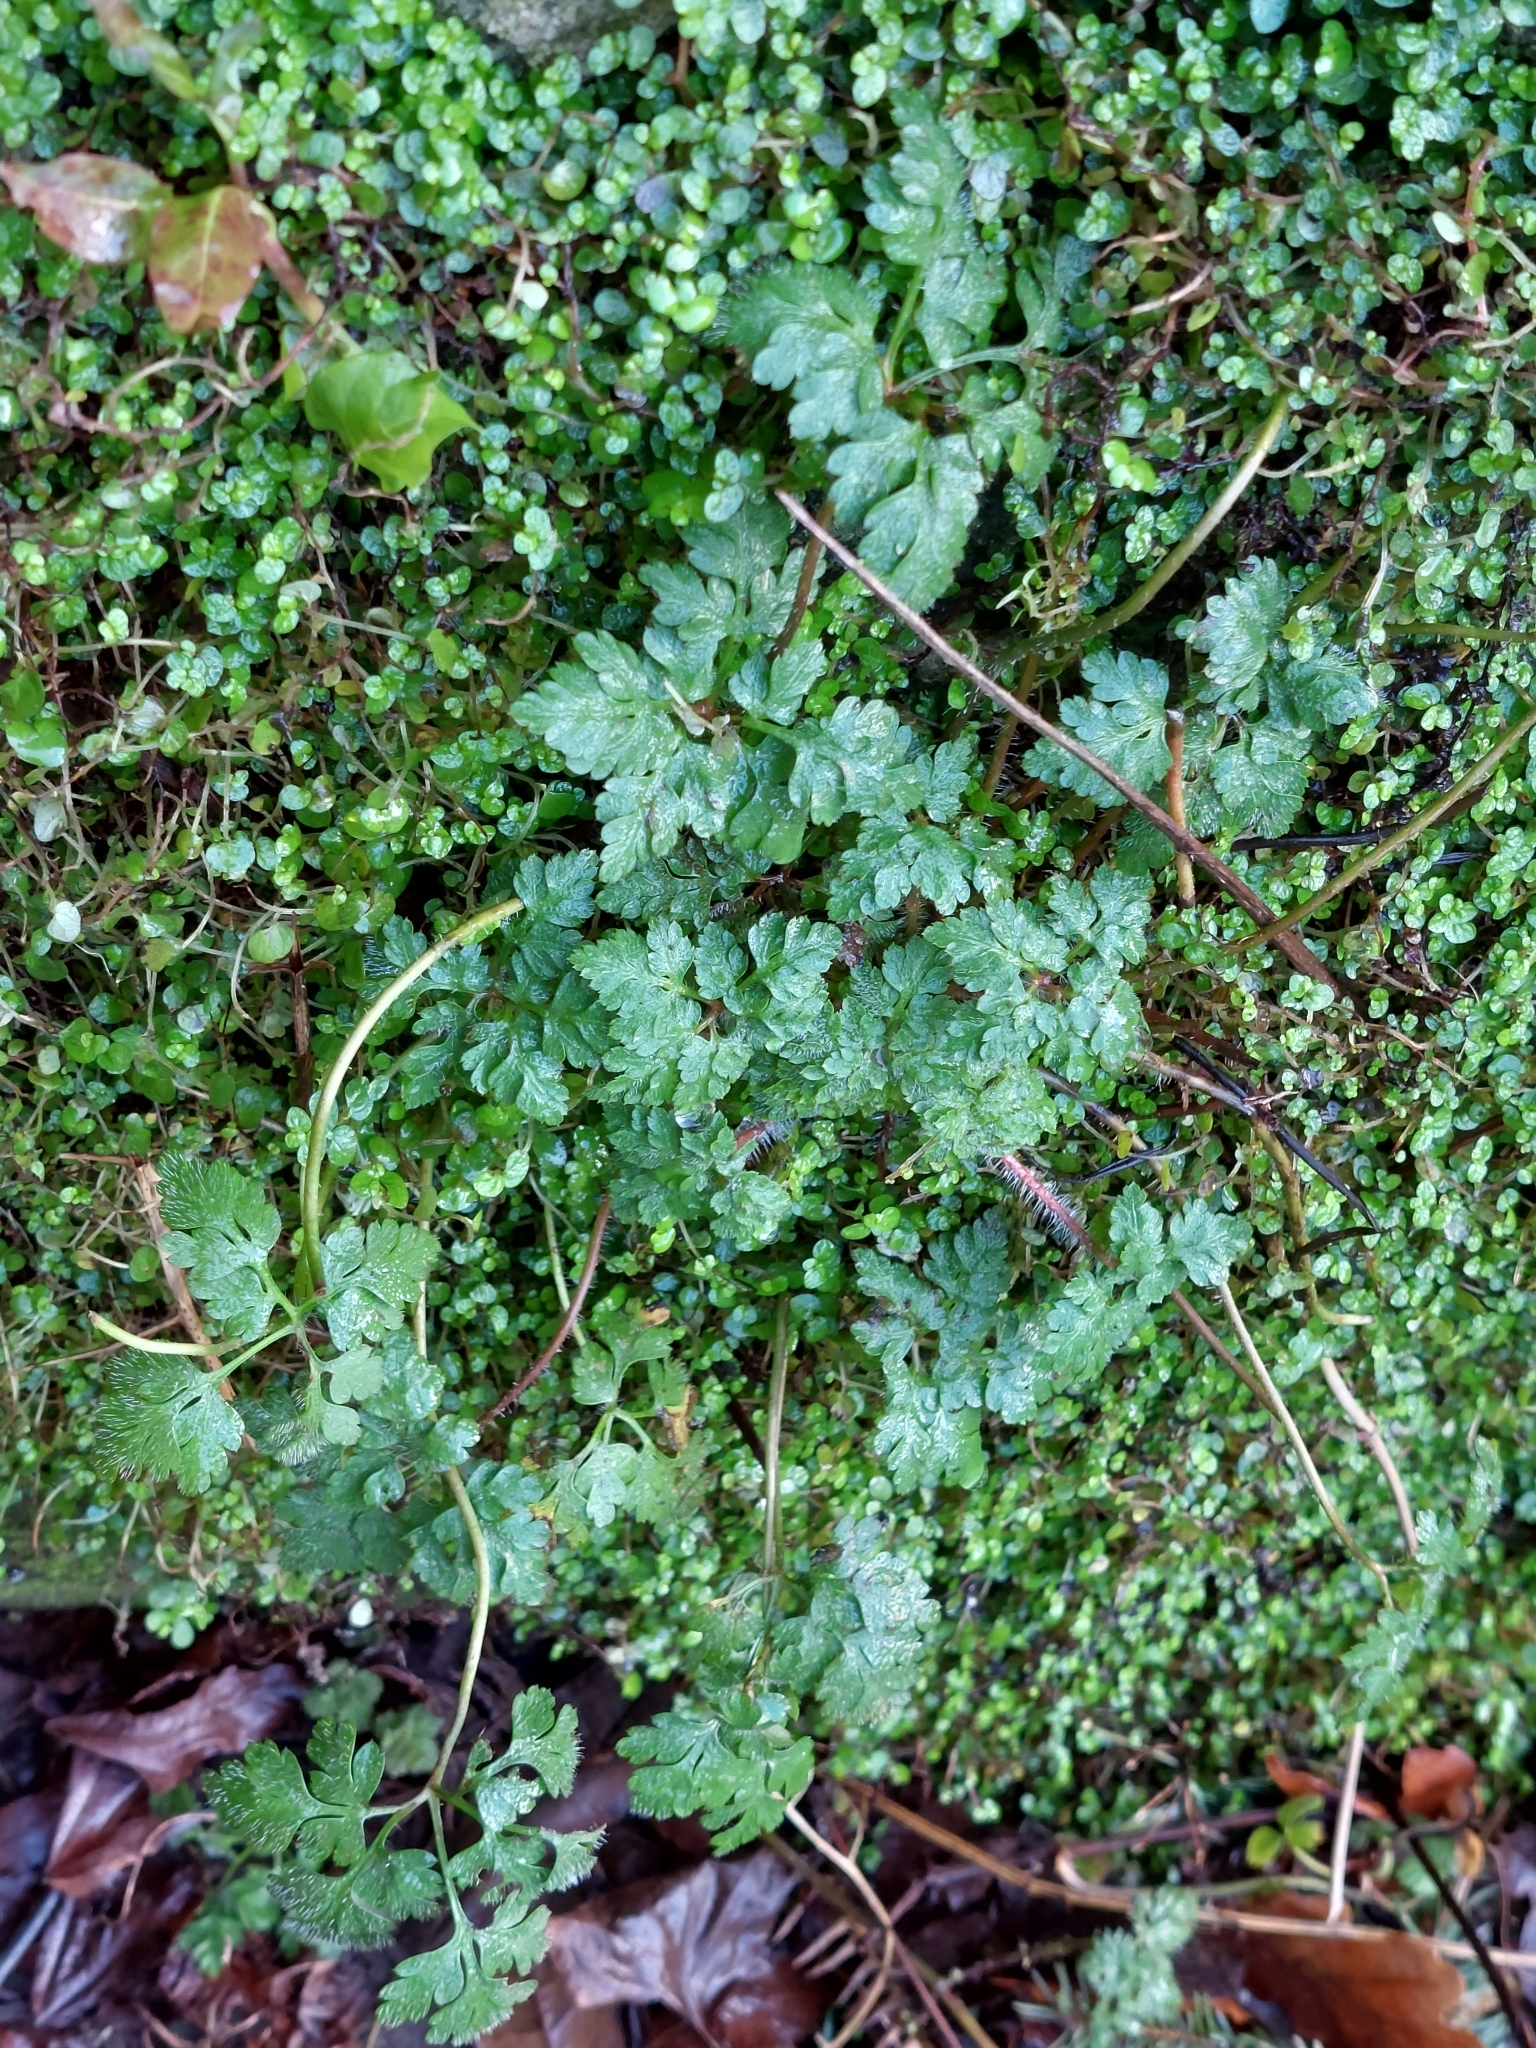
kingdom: Plantae
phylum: Tracheophyta
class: Magnoliopsida
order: Geraniales
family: Geraniaceae
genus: Geranium
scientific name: Geranium robertianum
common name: Herb-robert
